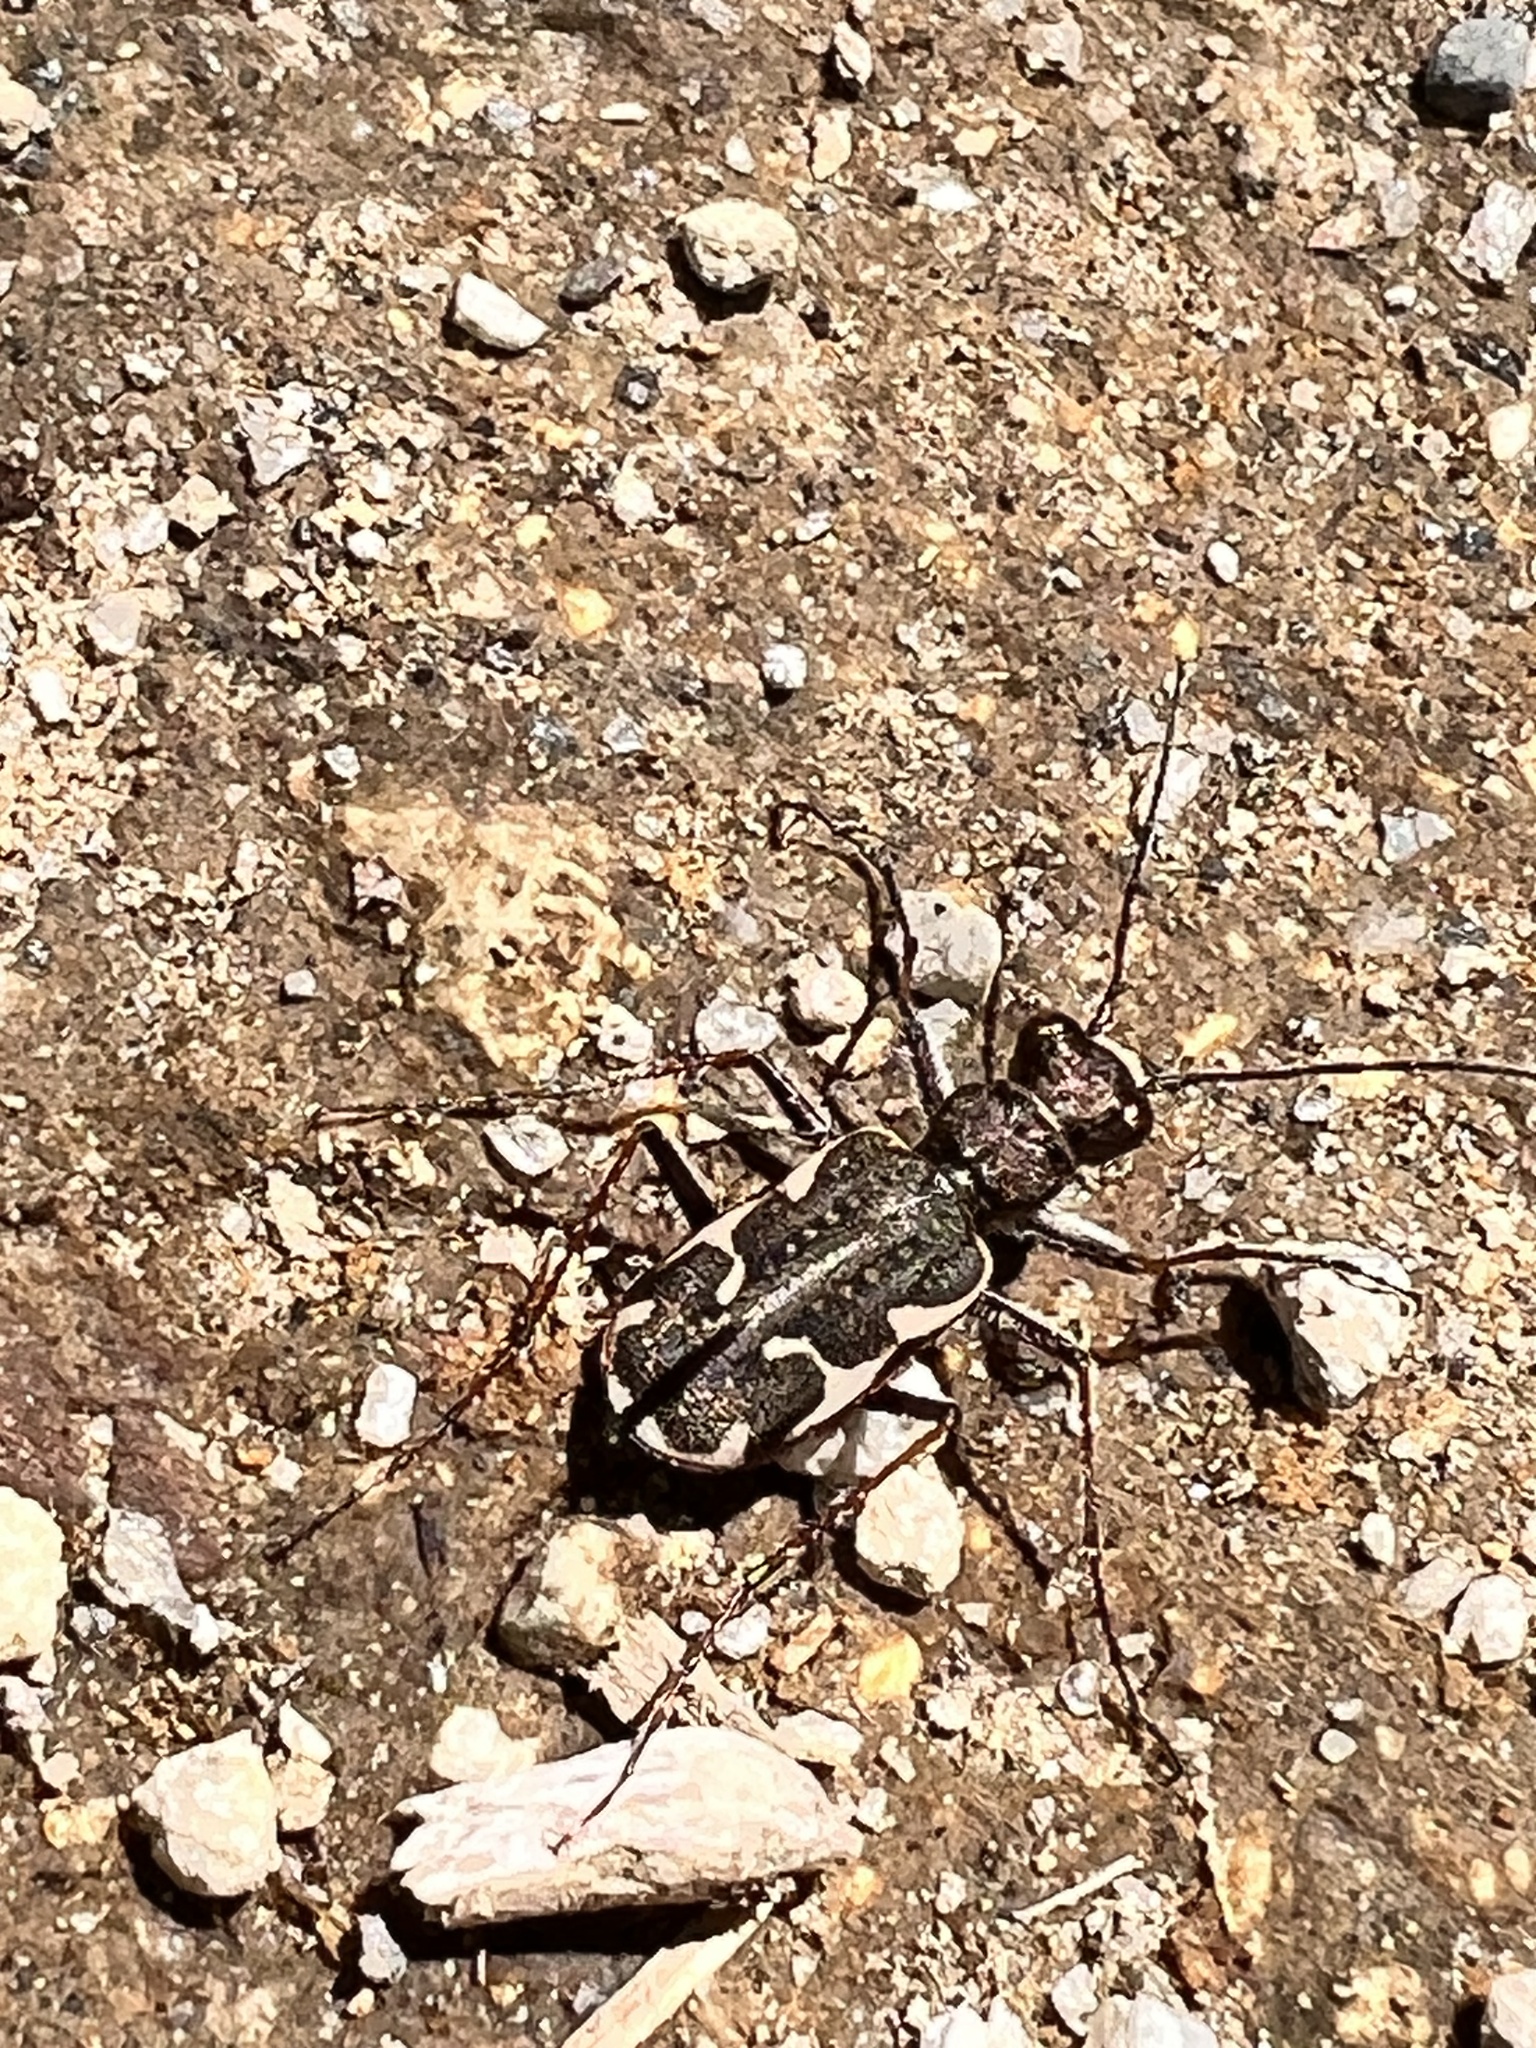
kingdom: Animalia
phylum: Arthropoda
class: Insecta
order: Coleoptera
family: Carabidae
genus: Neocicindela
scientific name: Neocicindela tuberculata
